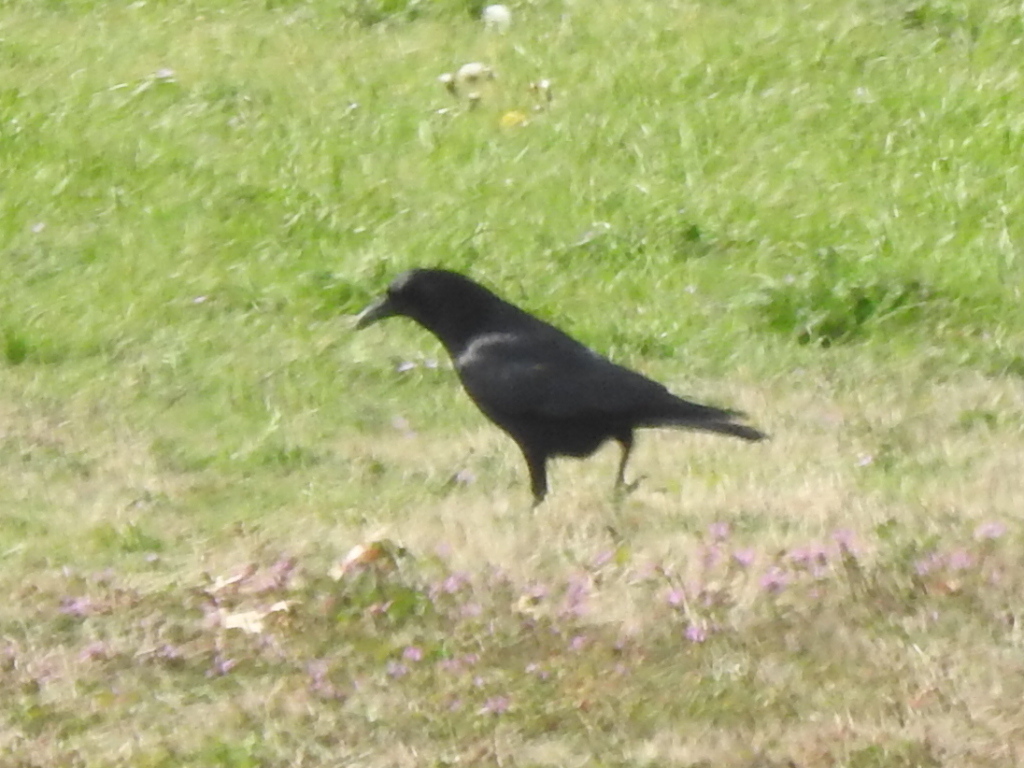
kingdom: Animalia
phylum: Chordata
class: Aves
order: Passeriformes
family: Corvidae
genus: Corvus
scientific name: Corvus brachyrhynchos
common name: American crow
